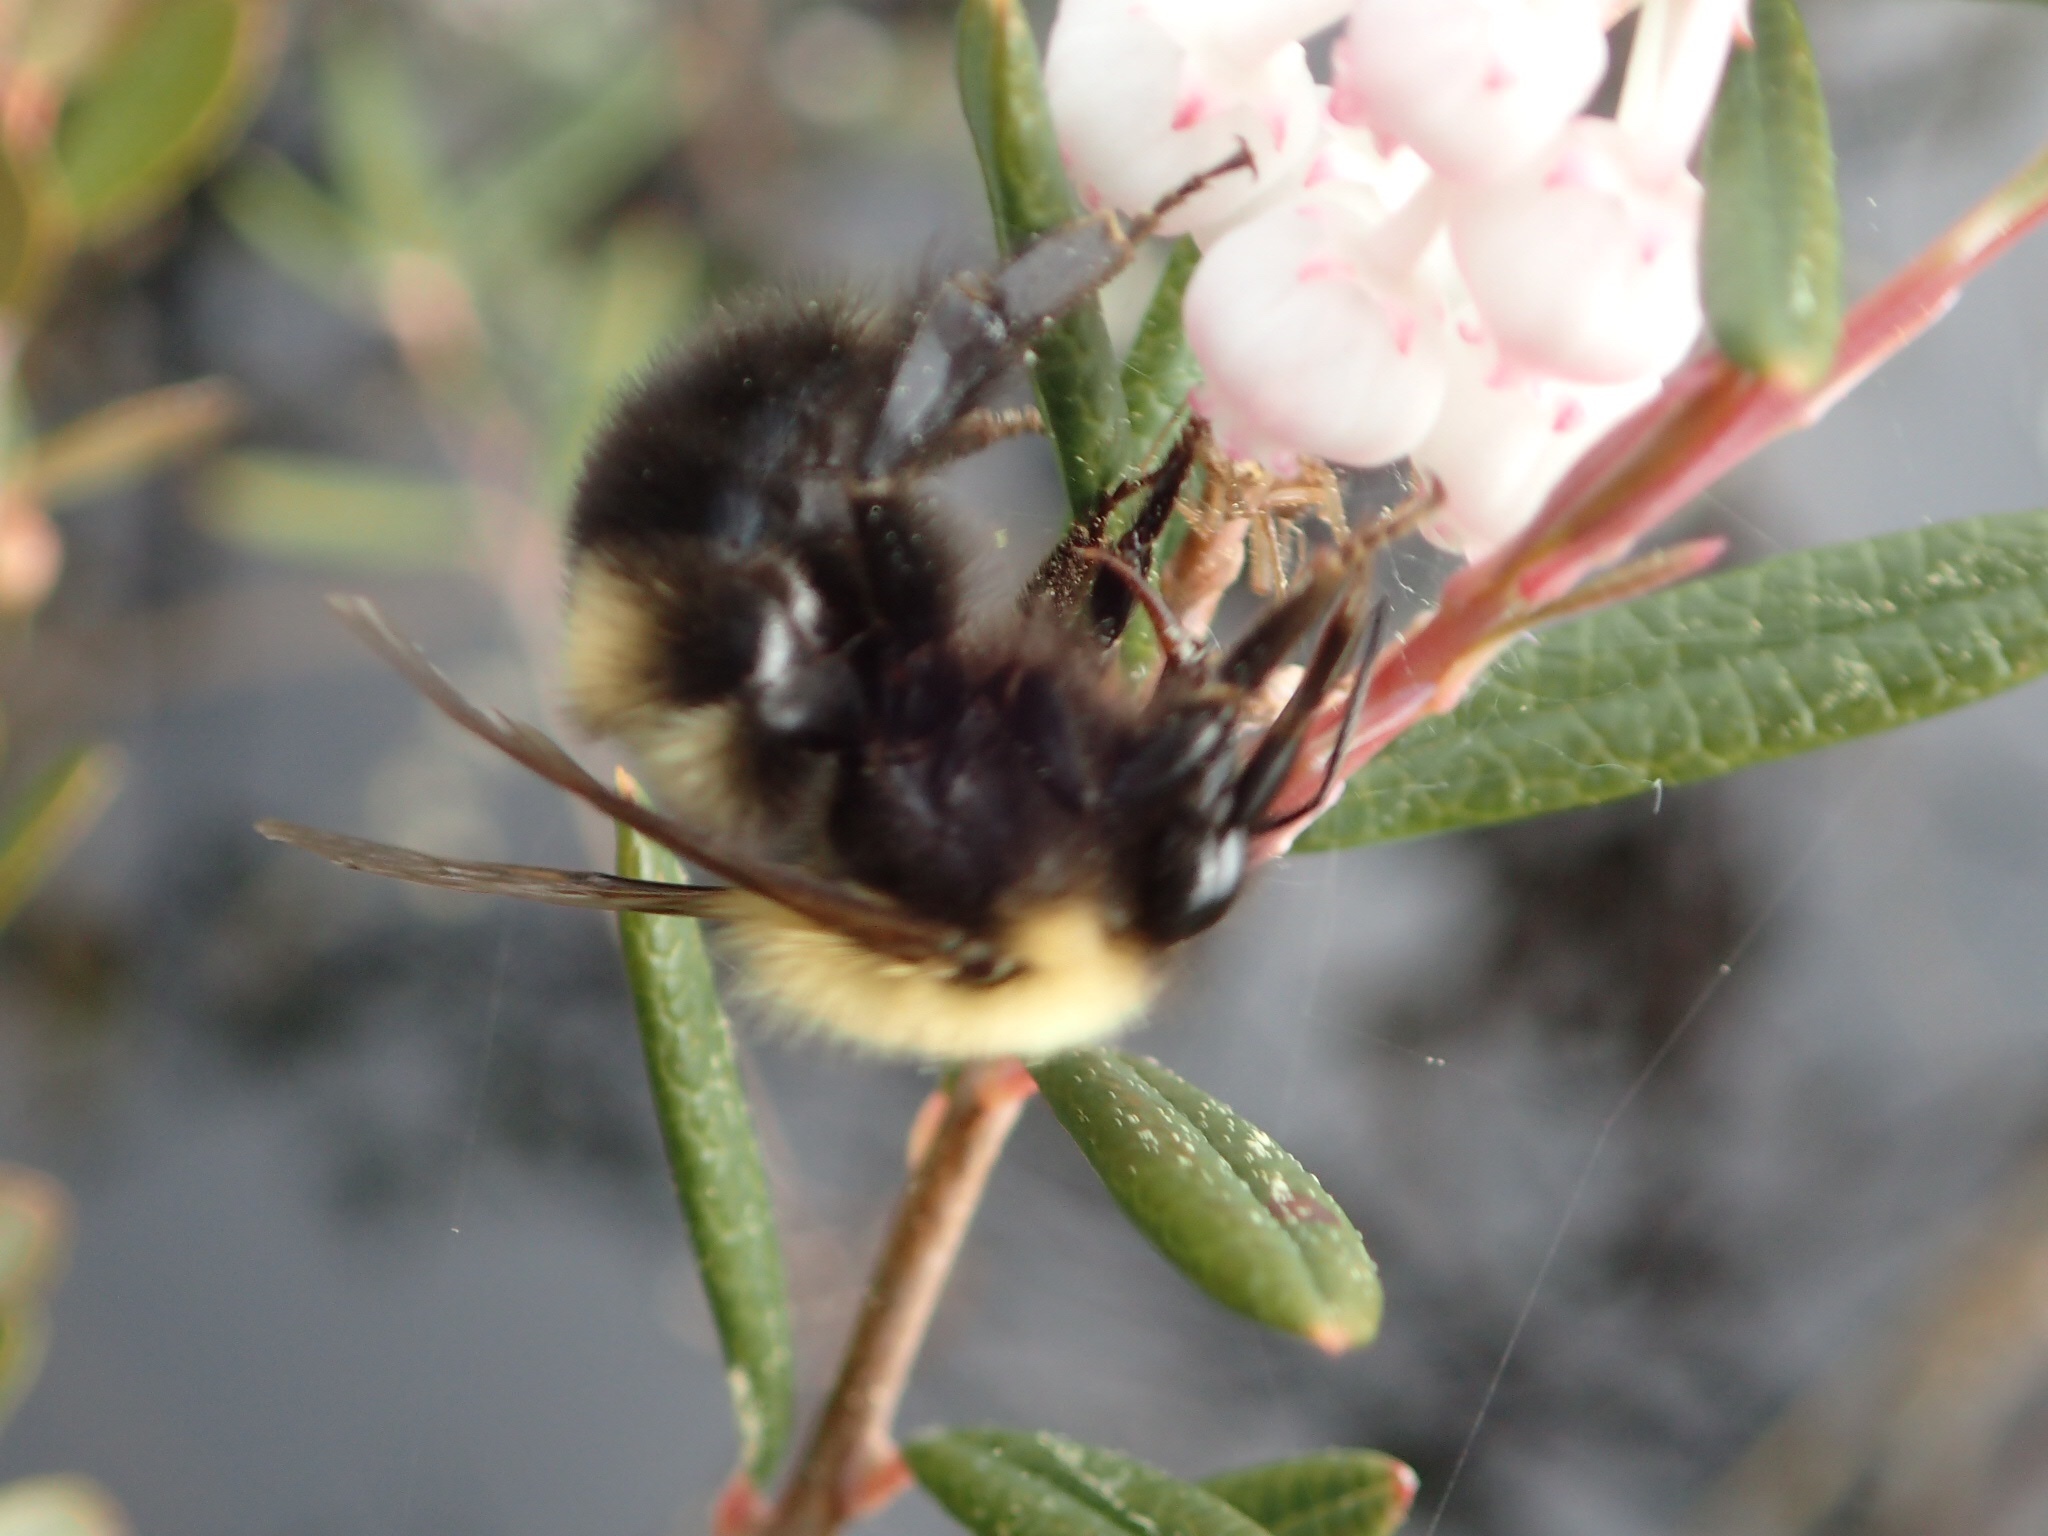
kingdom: Animalia
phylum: Arthropoda
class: Insecta
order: Hymenoptera
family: Apidae
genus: Bombus
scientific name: Bombus perplexus
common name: Confusing bumble bee
